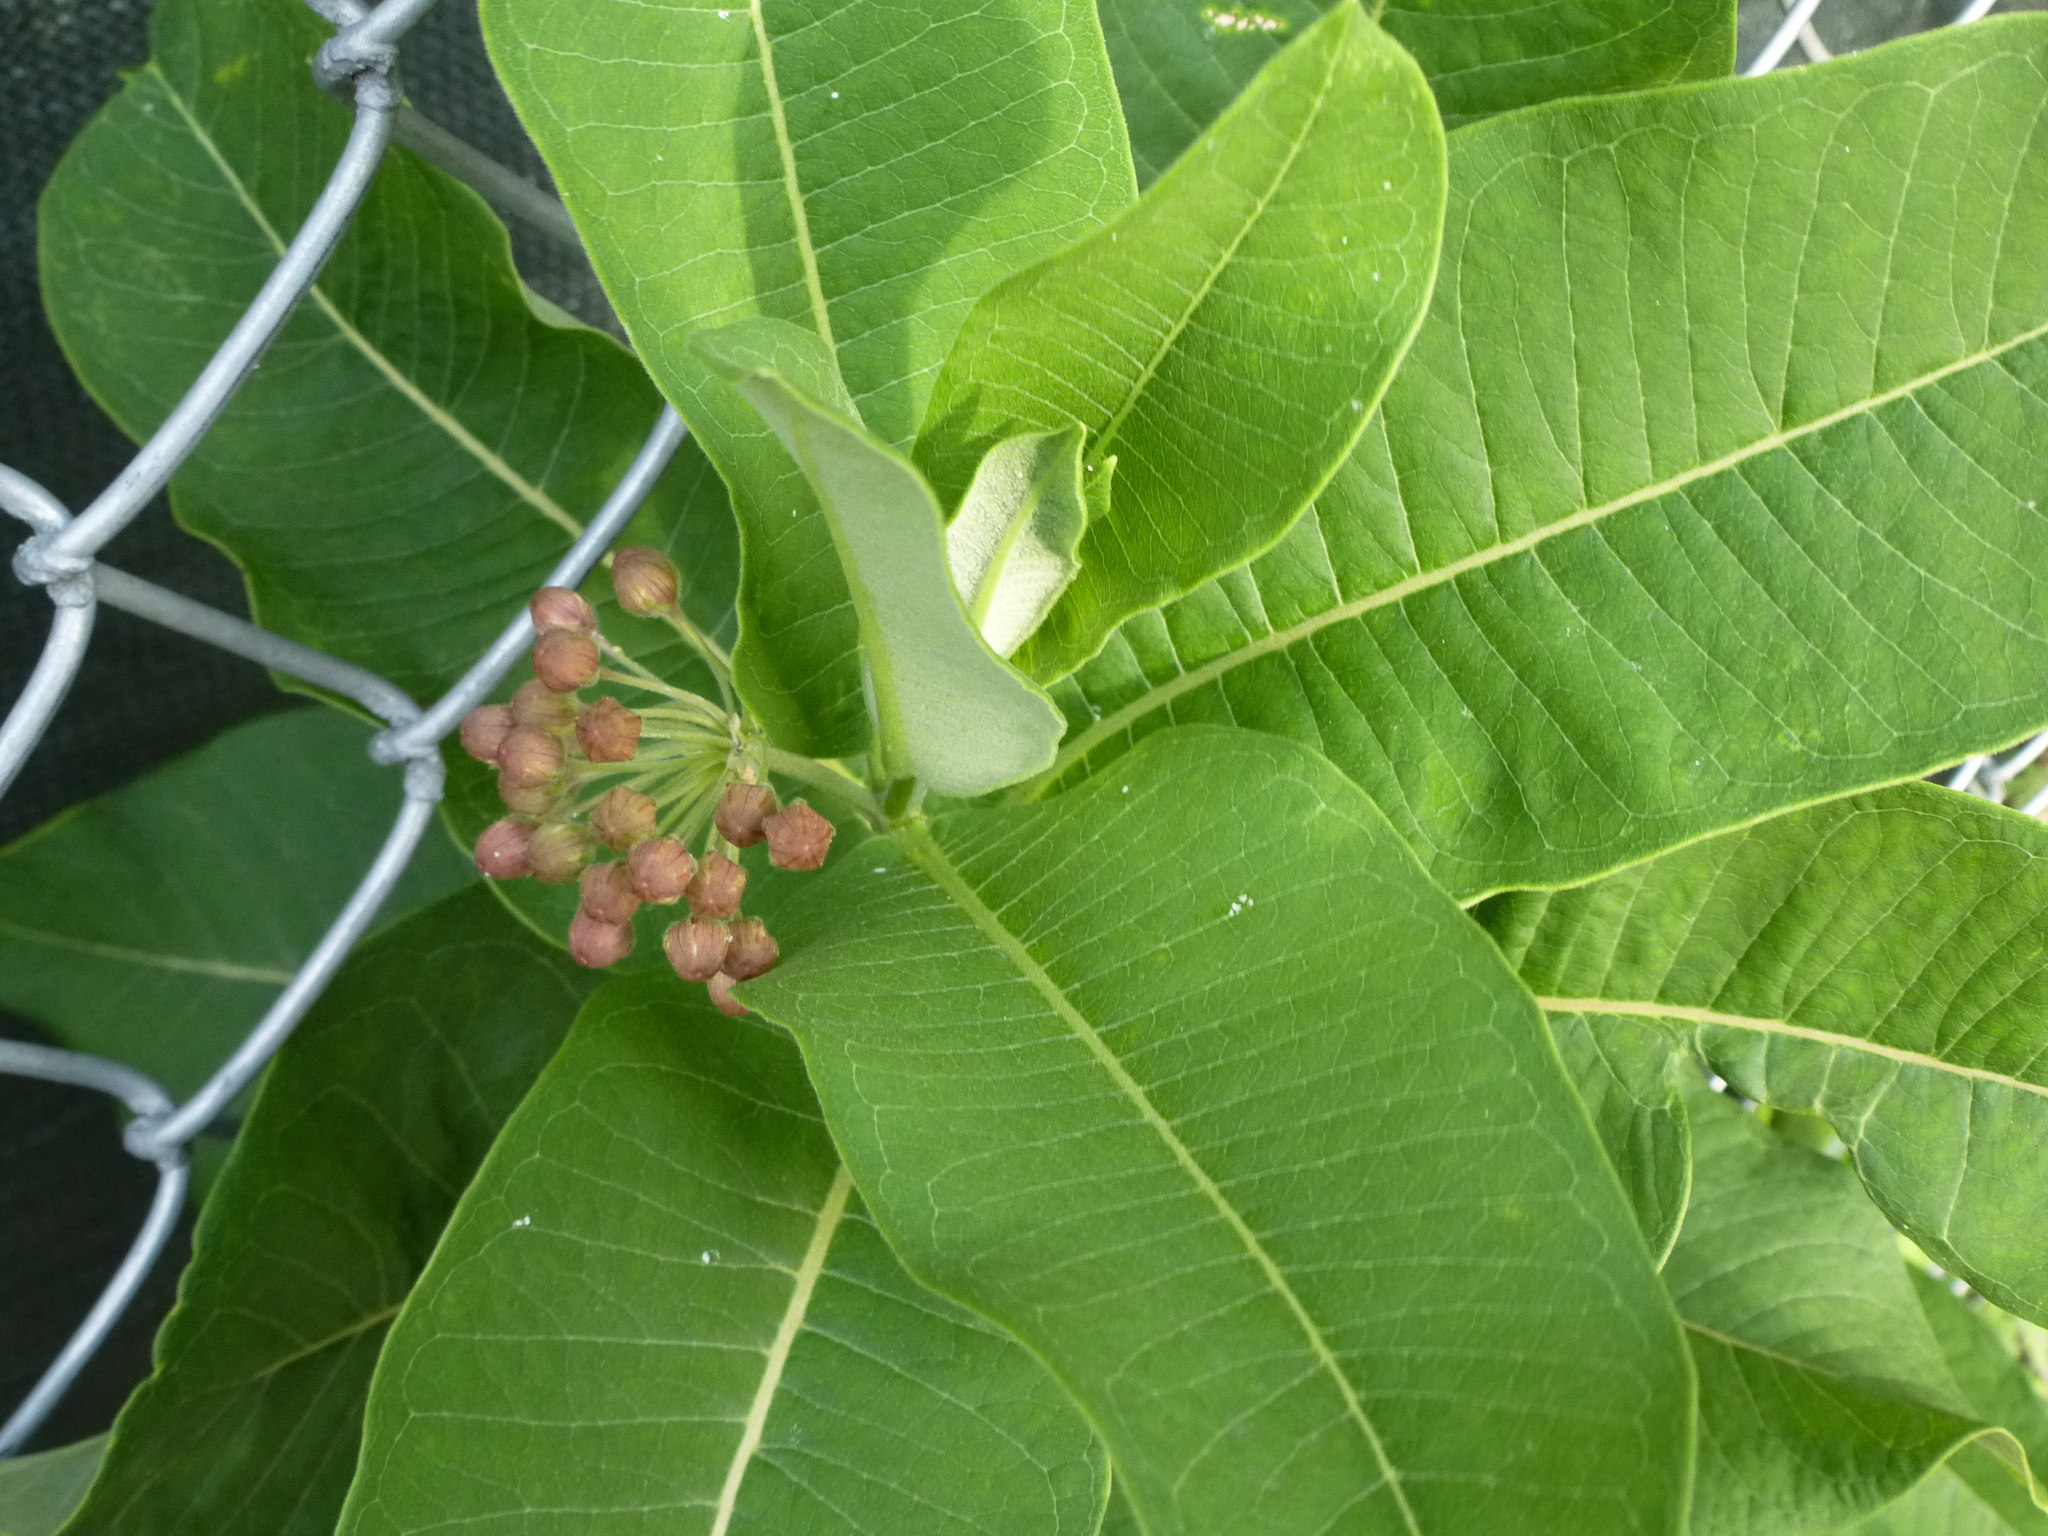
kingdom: Plantae
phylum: Tracheophyta
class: Magnoliopsida
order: Gentianales
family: Apocynaceae
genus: Asclepias
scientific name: Asclepias syriaca
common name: Common milkweed
